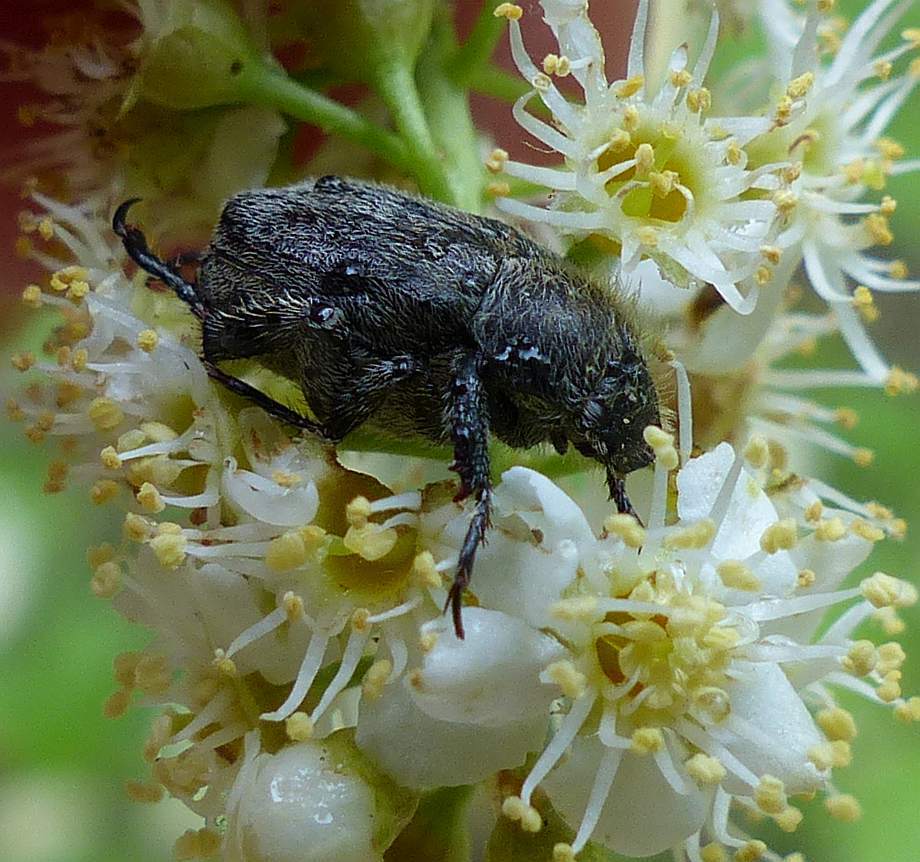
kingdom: Animalia
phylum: Arthropoda
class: Insecta
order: Coleoptera
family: Scarabaeidae
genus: Hoplia
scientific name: Hoplia trifasciata
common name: Three-lined hoplia
